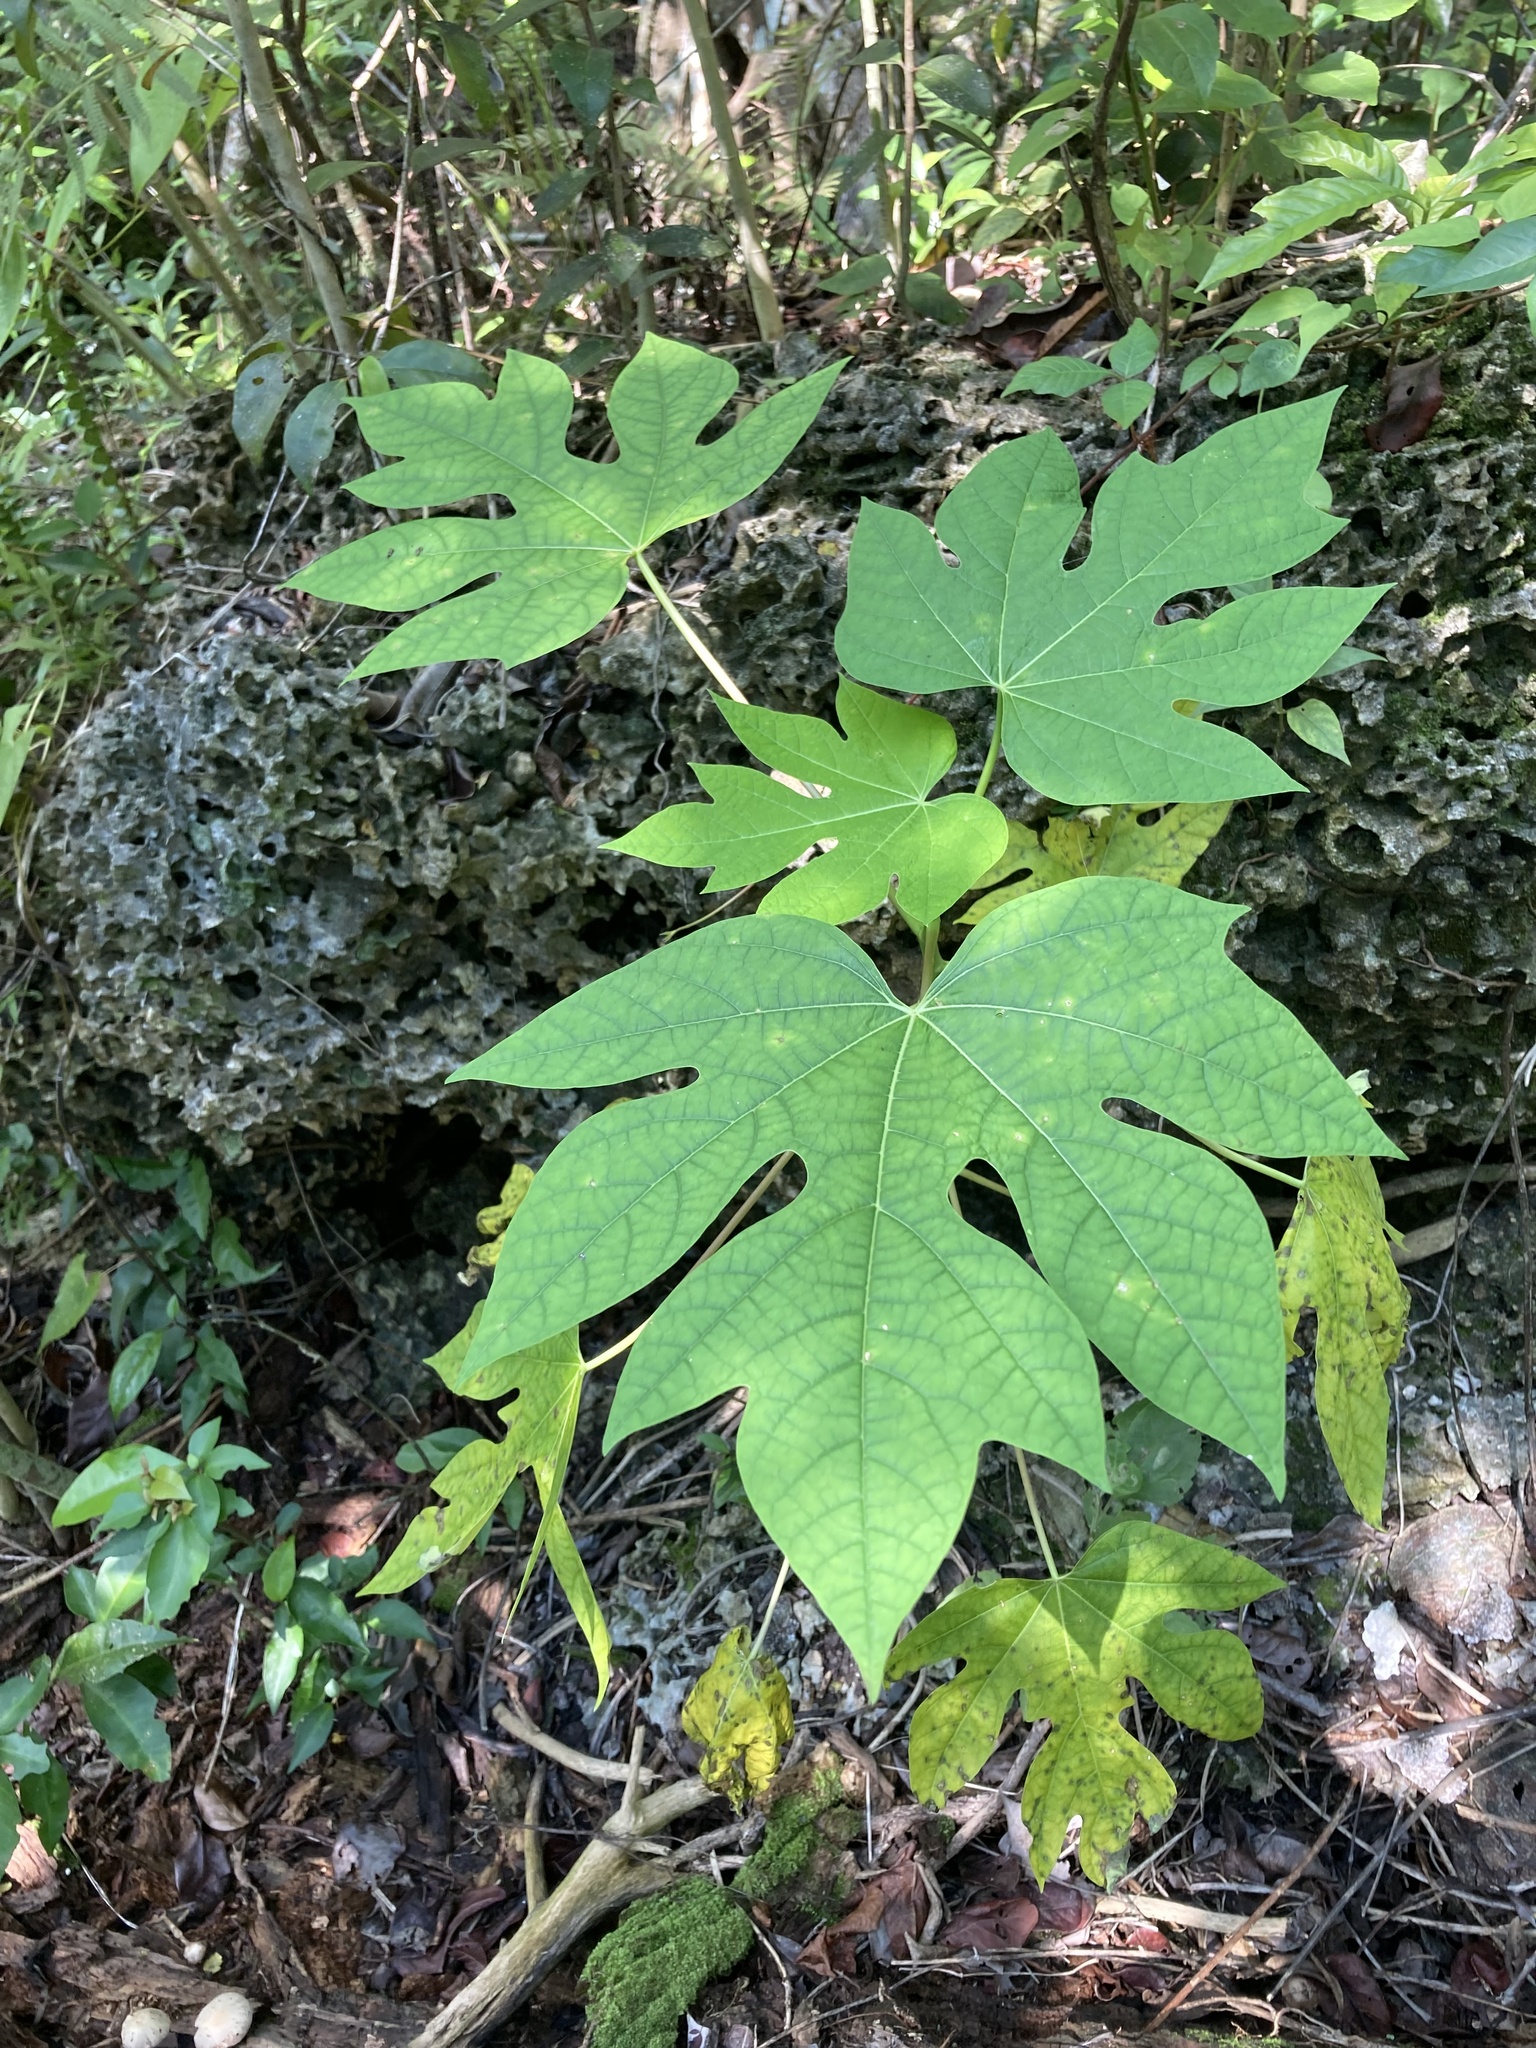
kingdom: Plantae
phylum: Tracheophyta
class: Magnoliopsida
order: Brassicales
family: Caricaceae
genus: Carica
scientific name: Carica papaya
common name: Papaya
